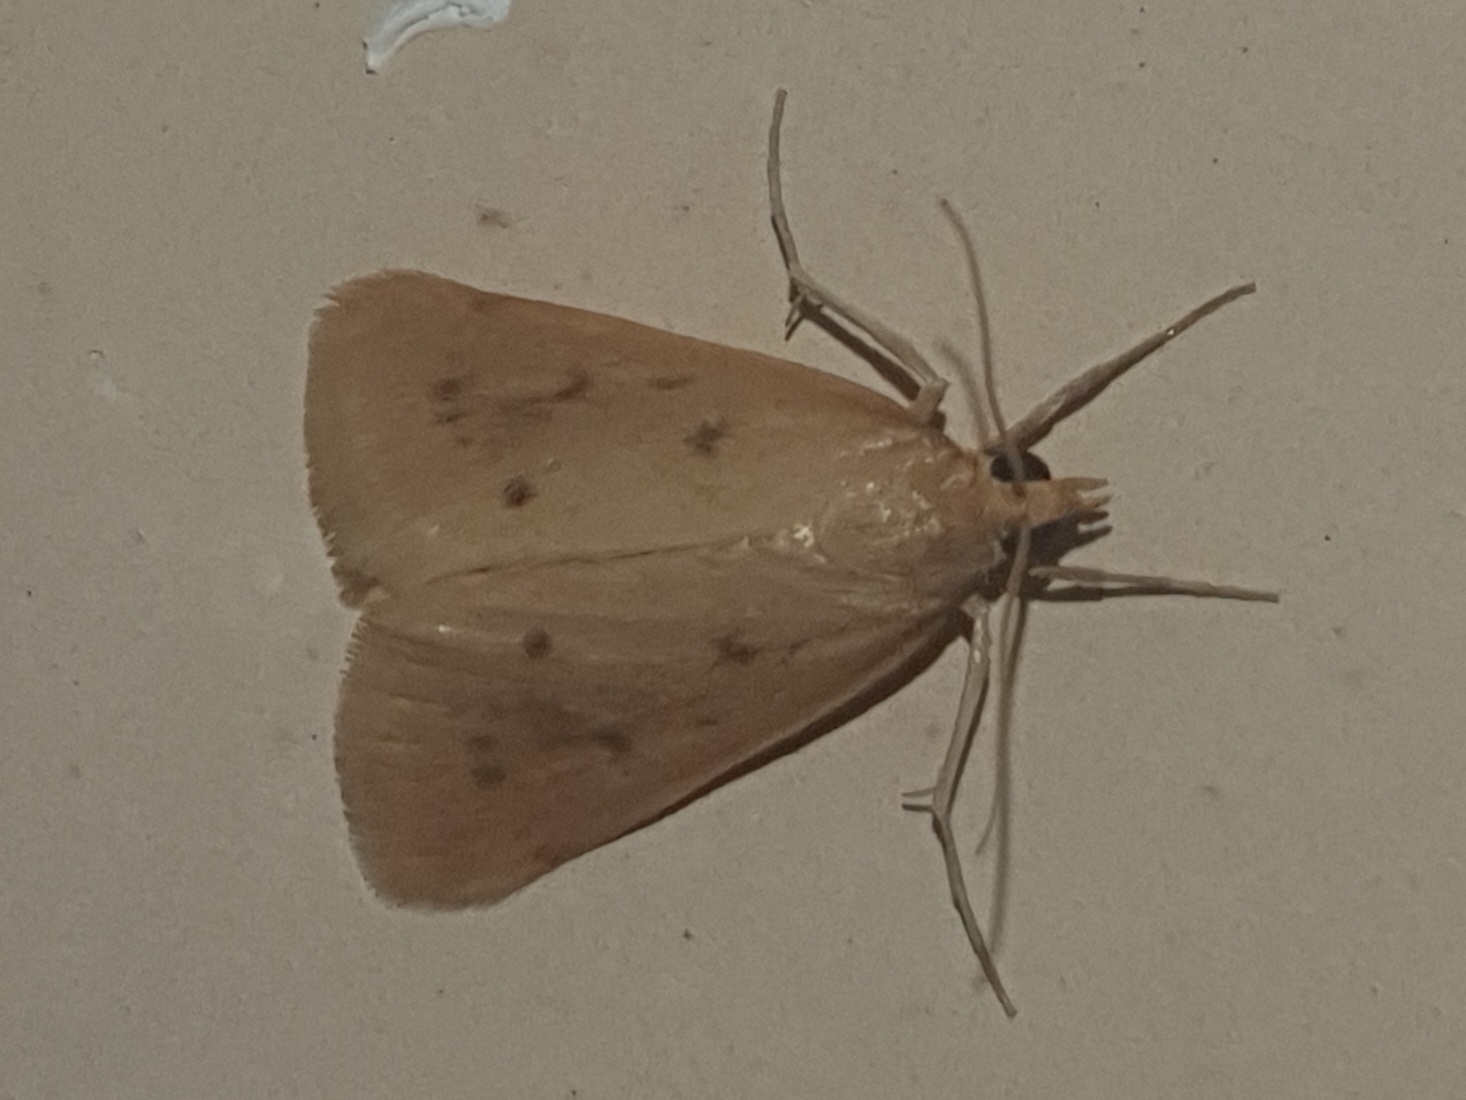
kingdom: Animalia
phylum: Arthropoda
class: Insecta
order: Lepidoptera
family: Crambidae
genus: Achyra
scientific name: Achyra nudalis
